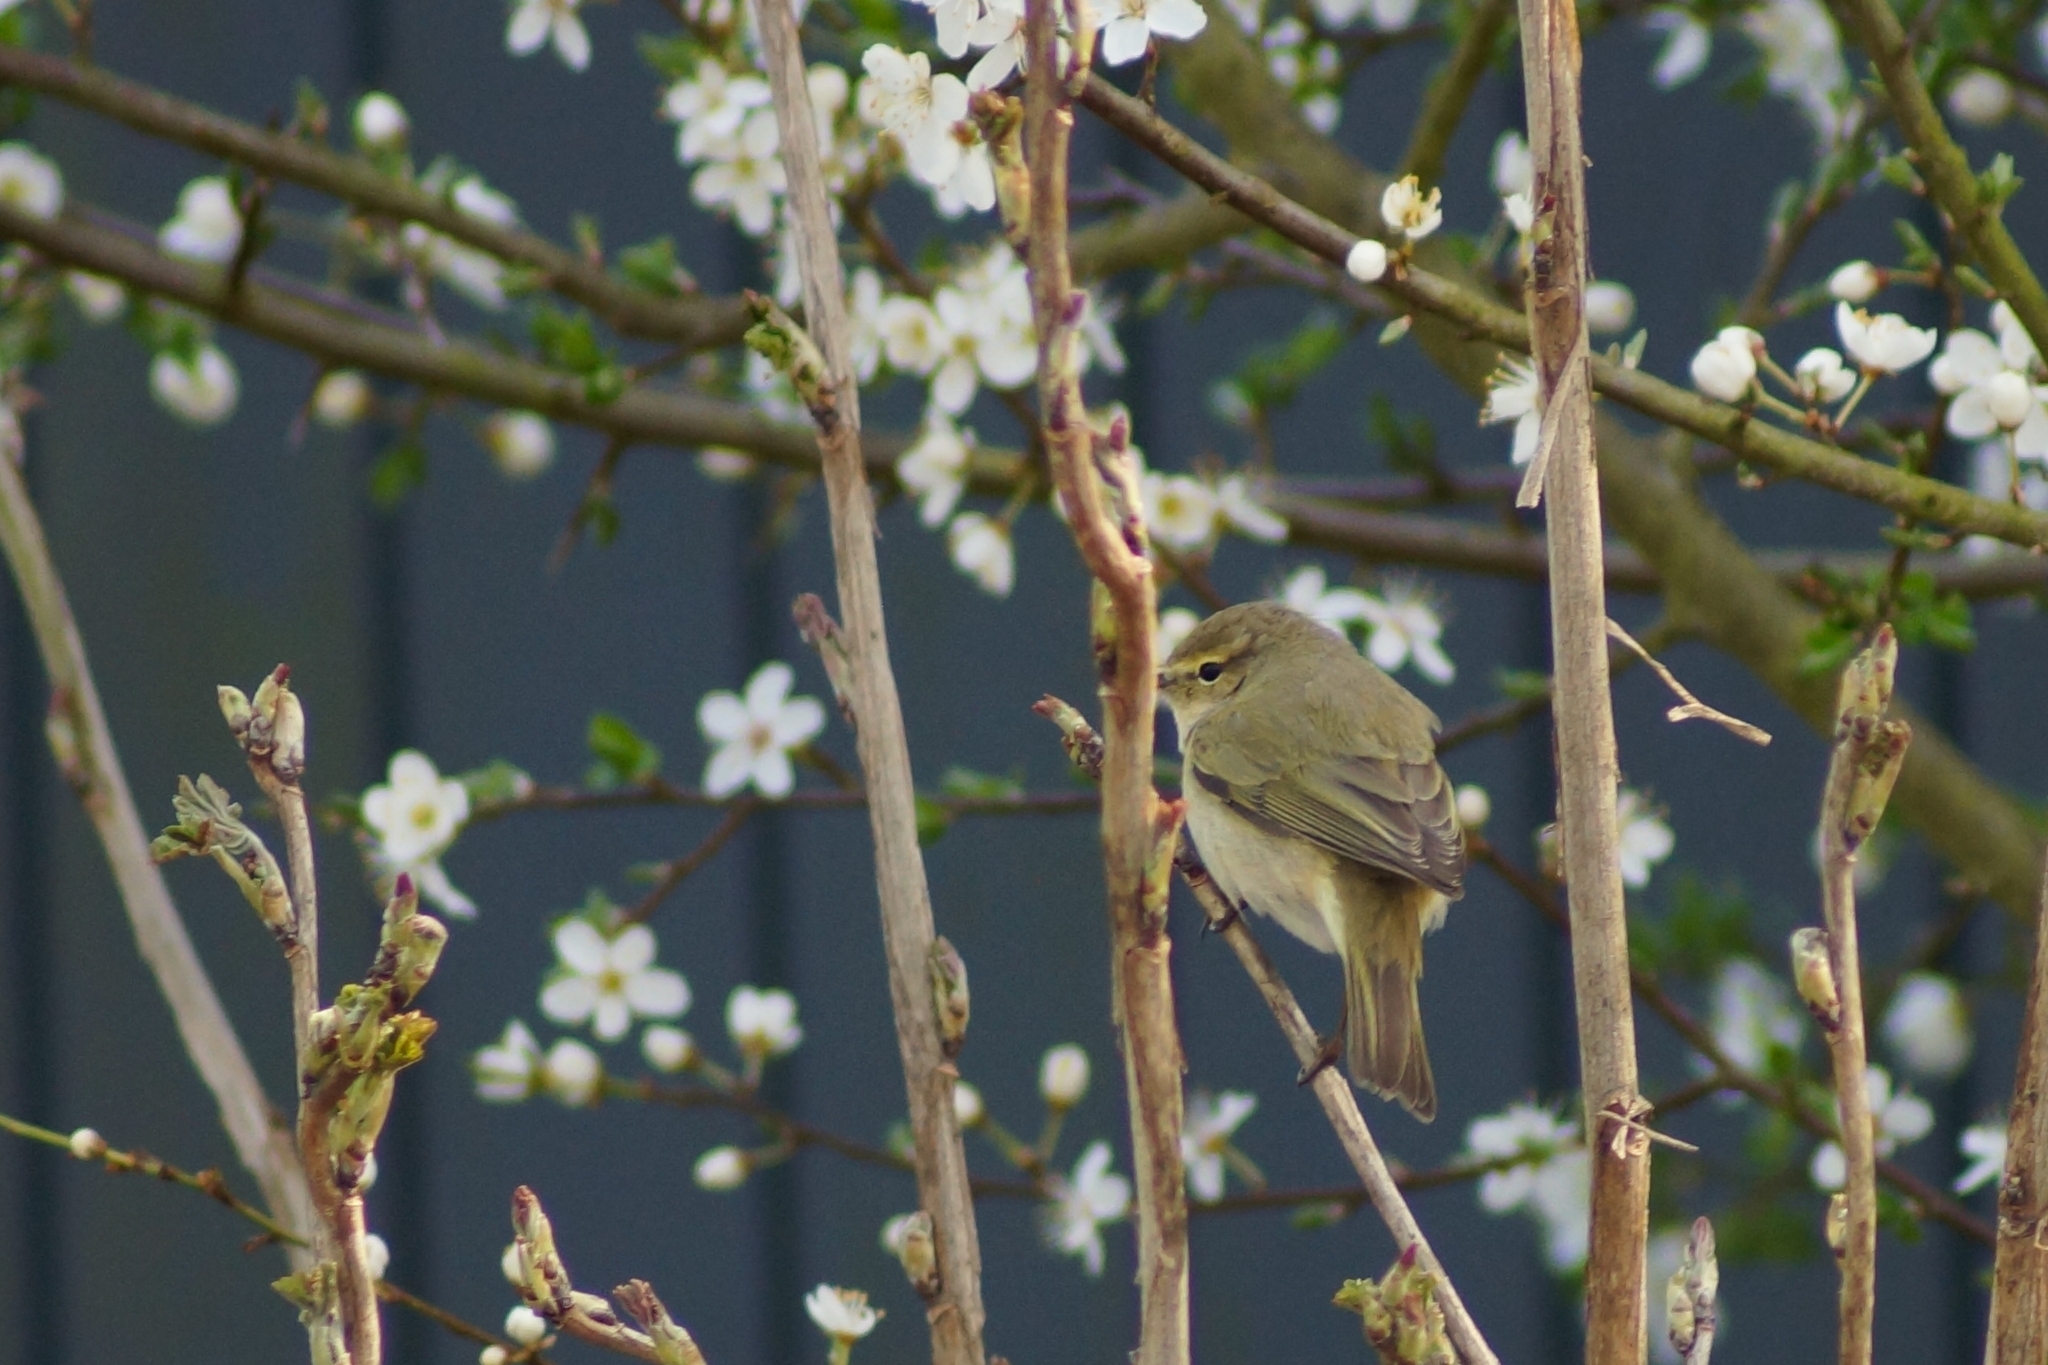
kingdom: Animalia
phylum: Chordata
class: Aves
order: Passeriformes
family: Phylloscopidae
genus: Phylloscopus
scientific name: Phylloscopus collybita
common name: Common chiffchaff
